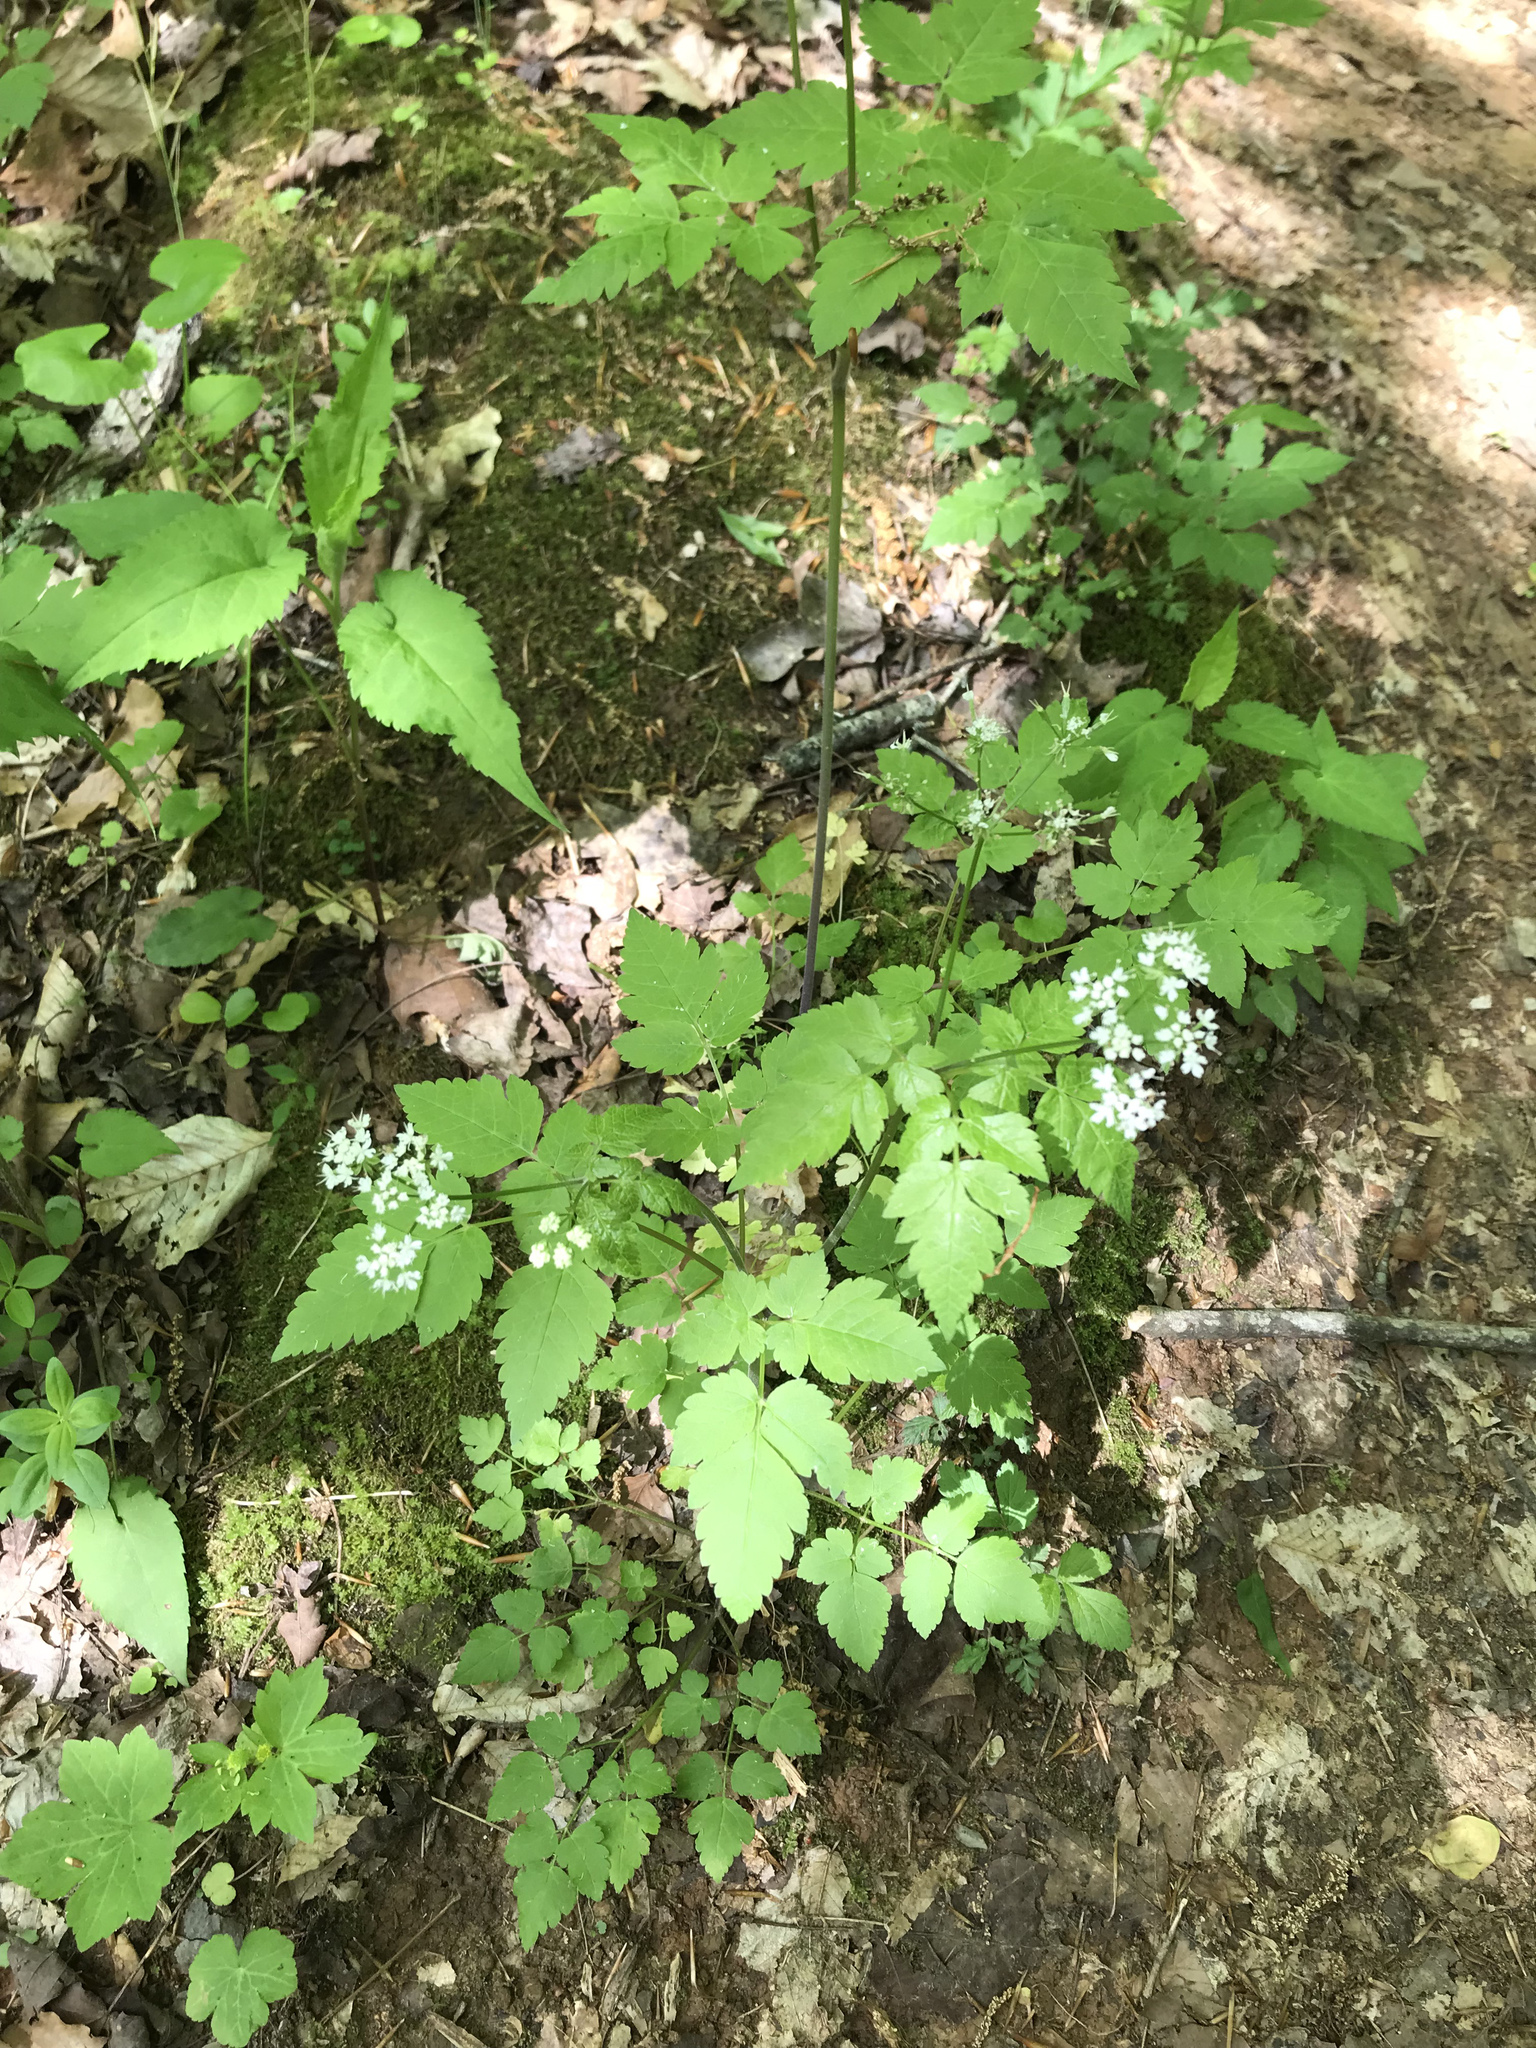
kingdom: Plantae
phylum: Tracheophyta
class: Magnoliopsida
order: Apiales
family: Apiaceae
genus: Osmorhiza
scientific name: Osmorhiza longistylis
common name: Smooth sweet cicely
